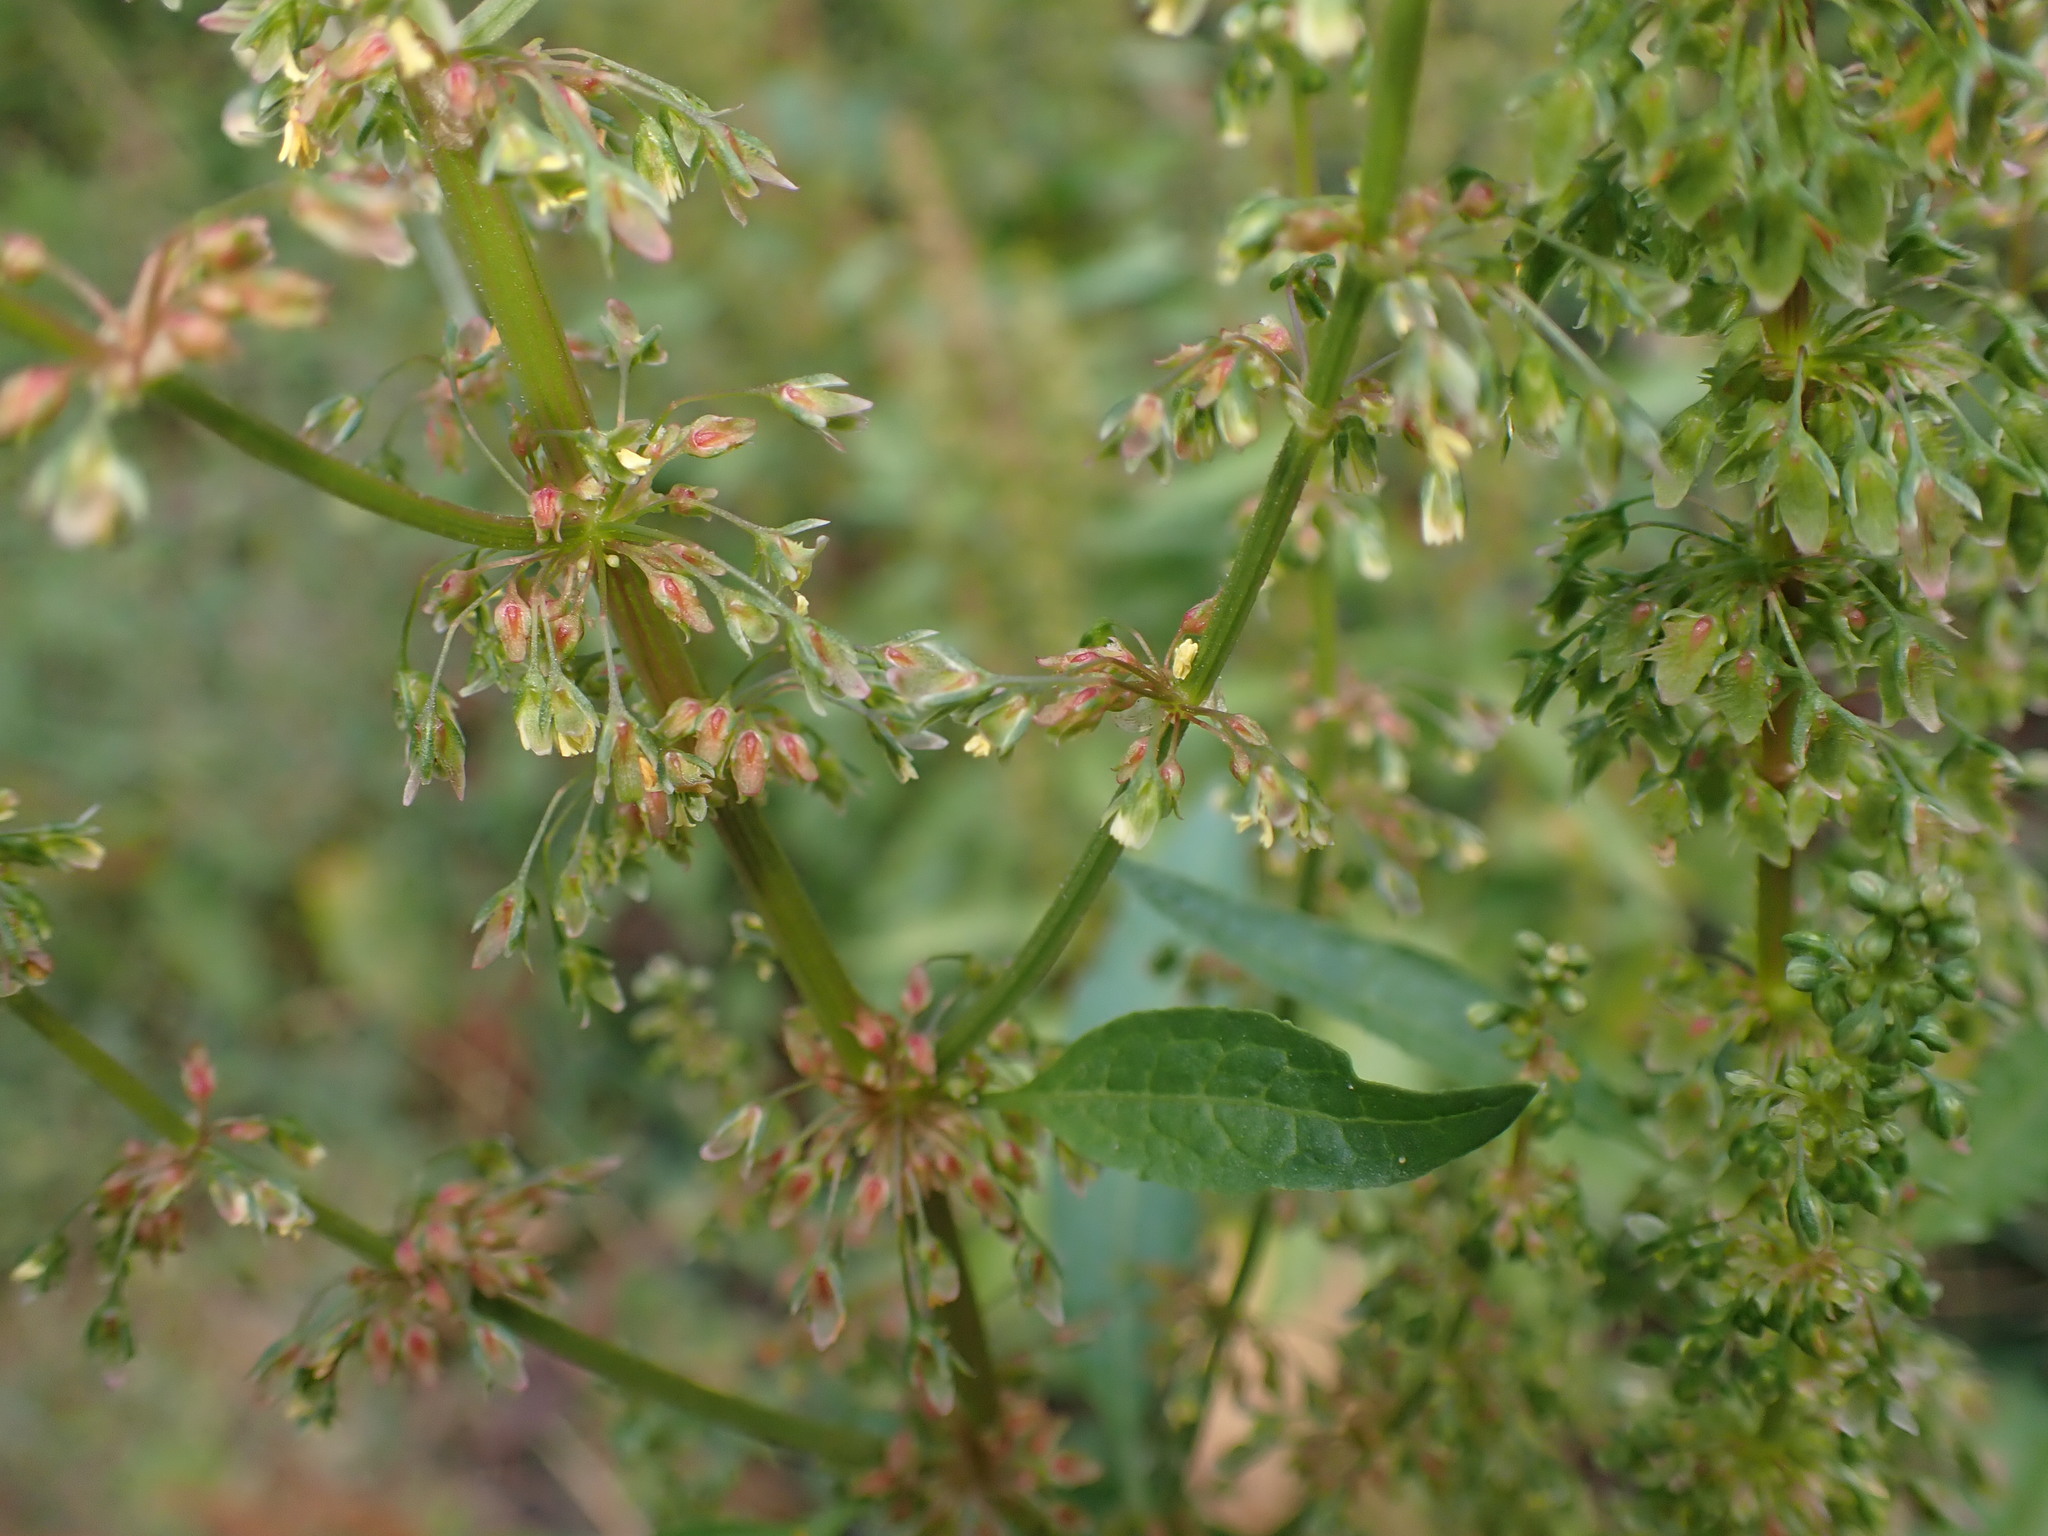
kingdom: Plantae
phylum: Tracheophyta
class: Magnoliopsida
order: Caryophyllales
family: Polygonaceae
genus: Rumex
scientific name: Rumex obtusifolius
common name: Bitter dock
